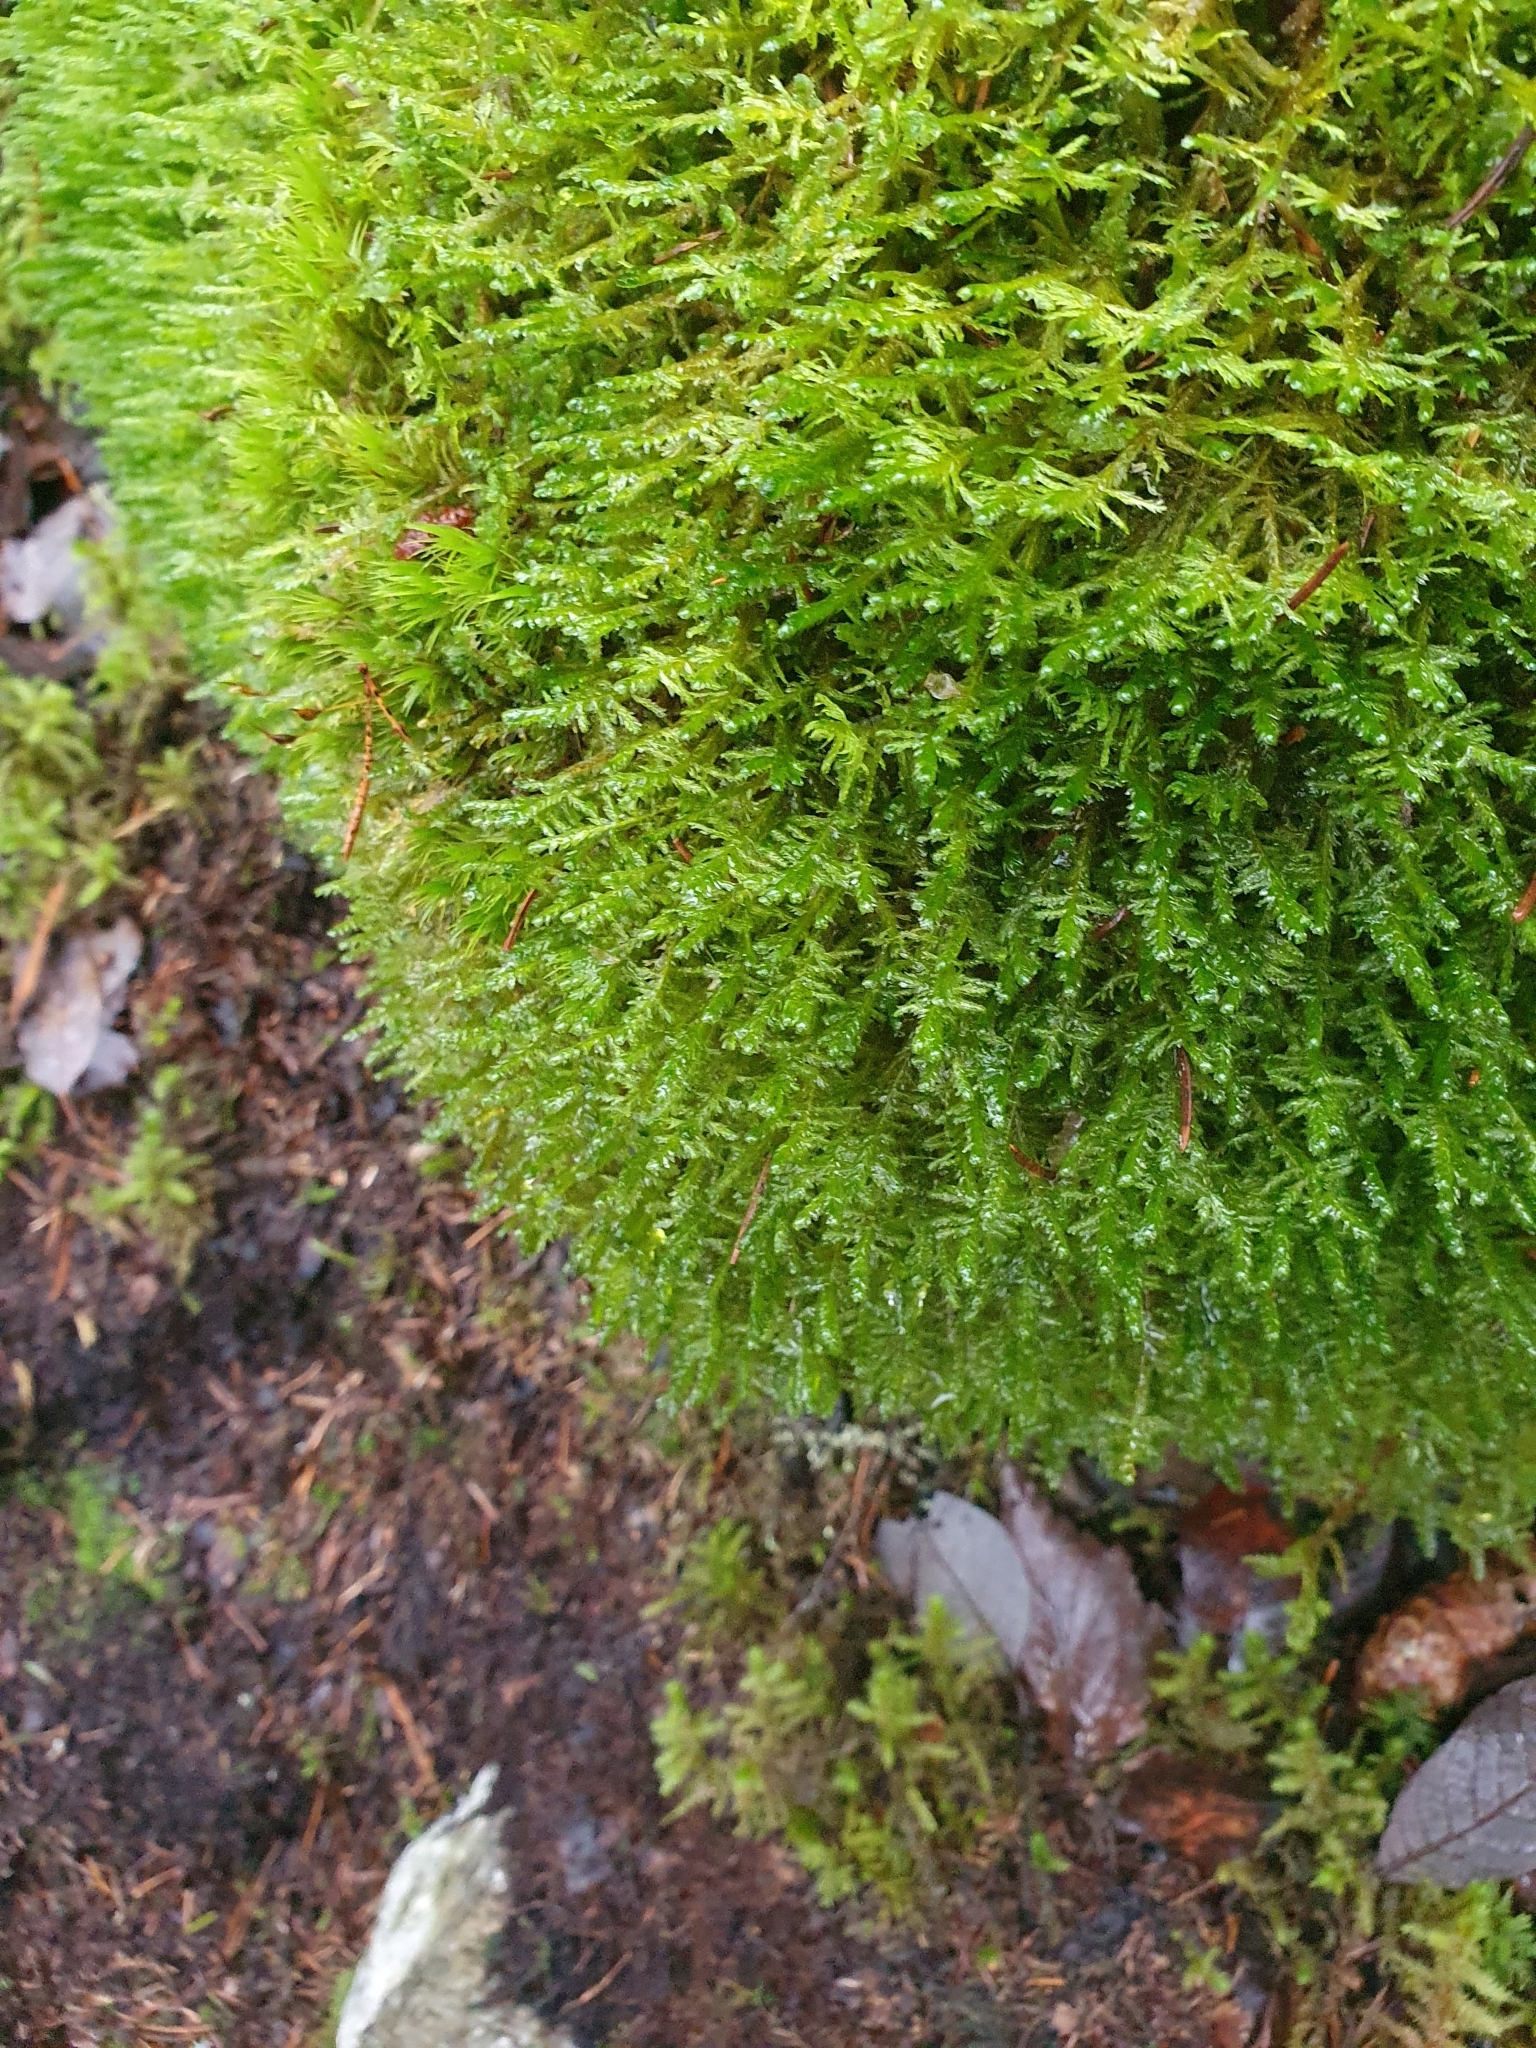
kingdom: Plantae
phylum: Bryophyta
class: Bryopsida
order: Hypnales
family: Neckeraceae
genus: Alleniella
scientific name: Alleniella complanata
